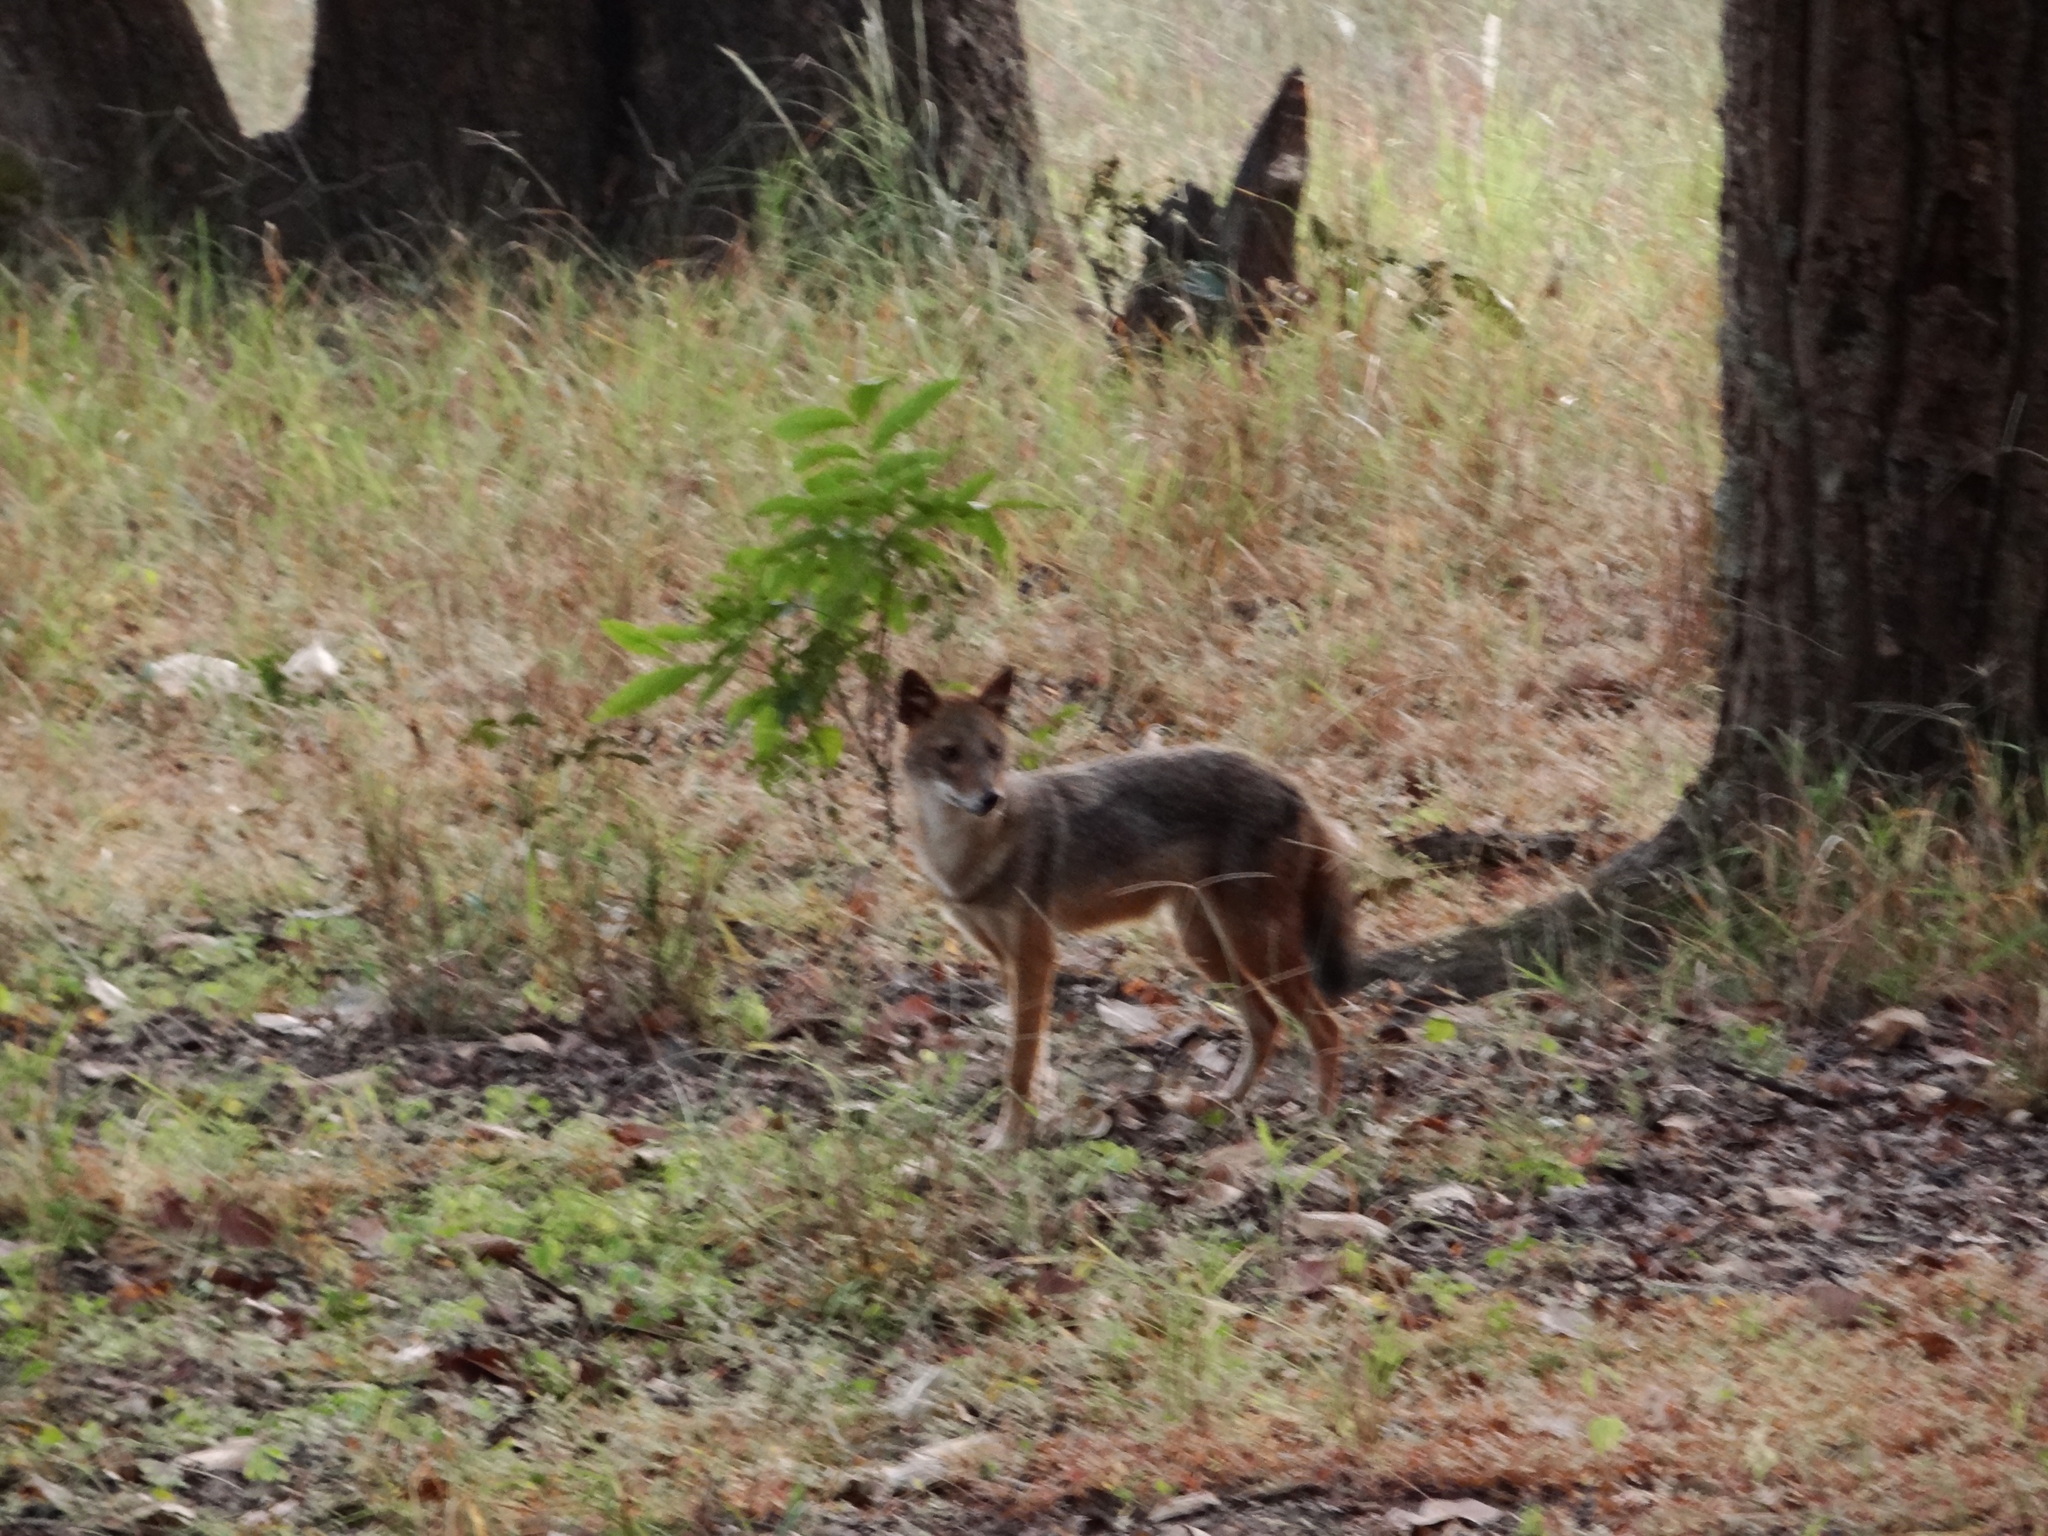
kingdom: Animalia
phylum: Chordata
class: Mammalia
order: Carnivora
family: Canidae
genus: Canis
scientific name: Canis aureus
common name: Golden jackal
